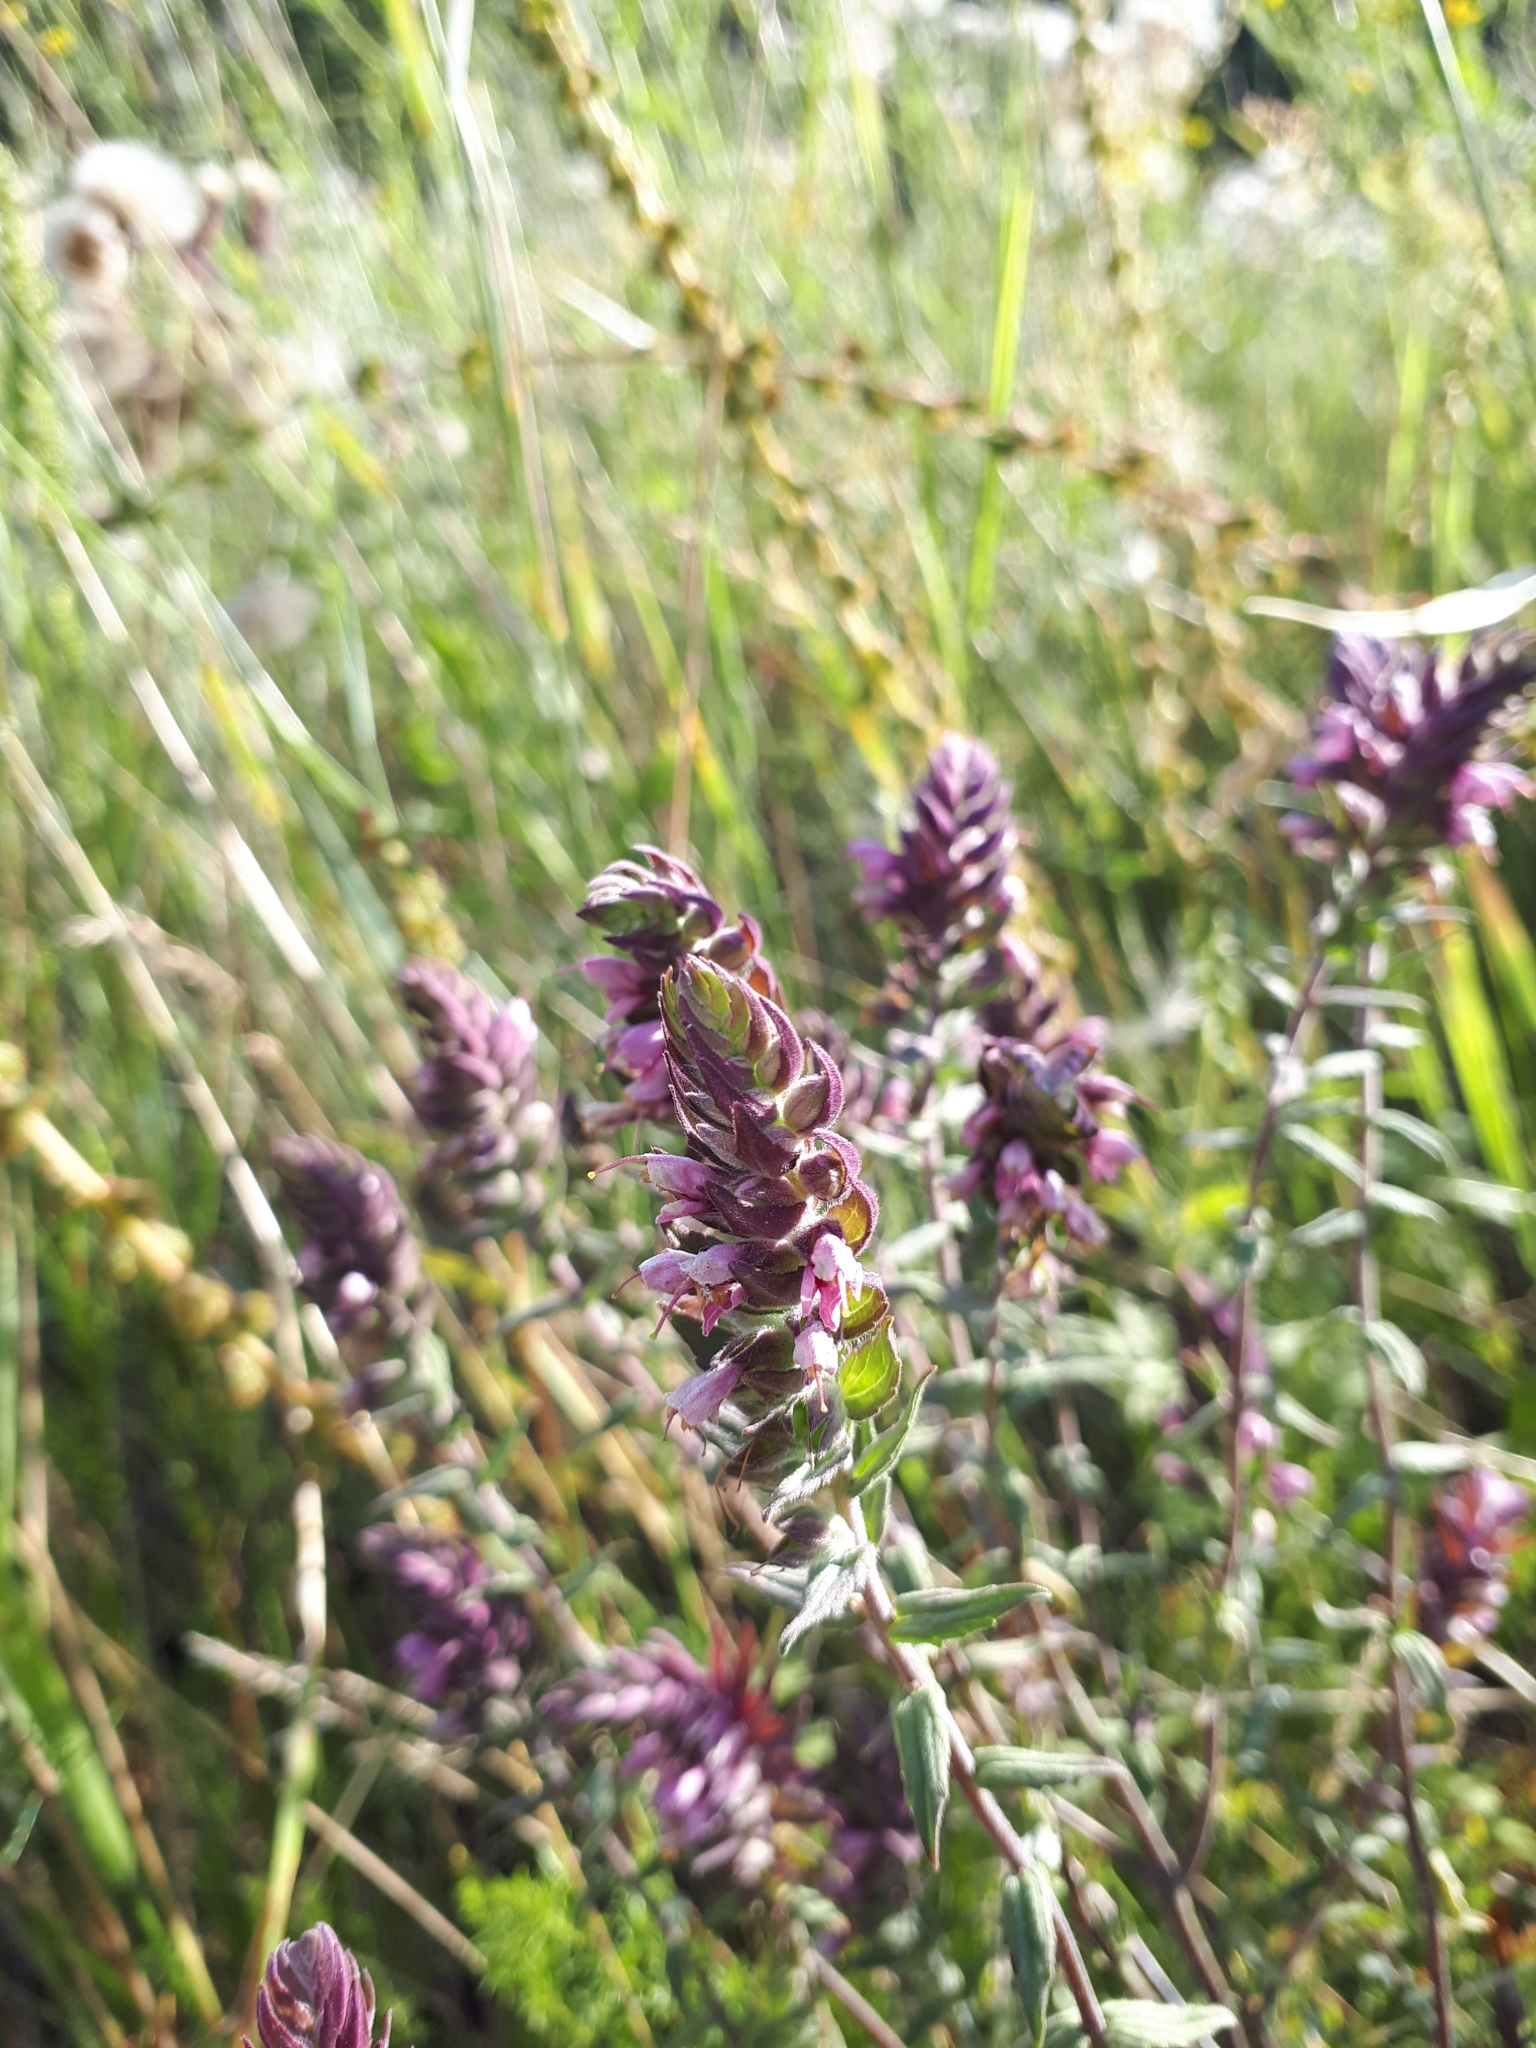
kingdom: Plantae
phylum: Tracheophyta
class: Magnoliopsida
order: Lamiales
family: Orobanchaceae
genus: Odontites
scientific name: Odontites vulgaris
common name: Broomrape
